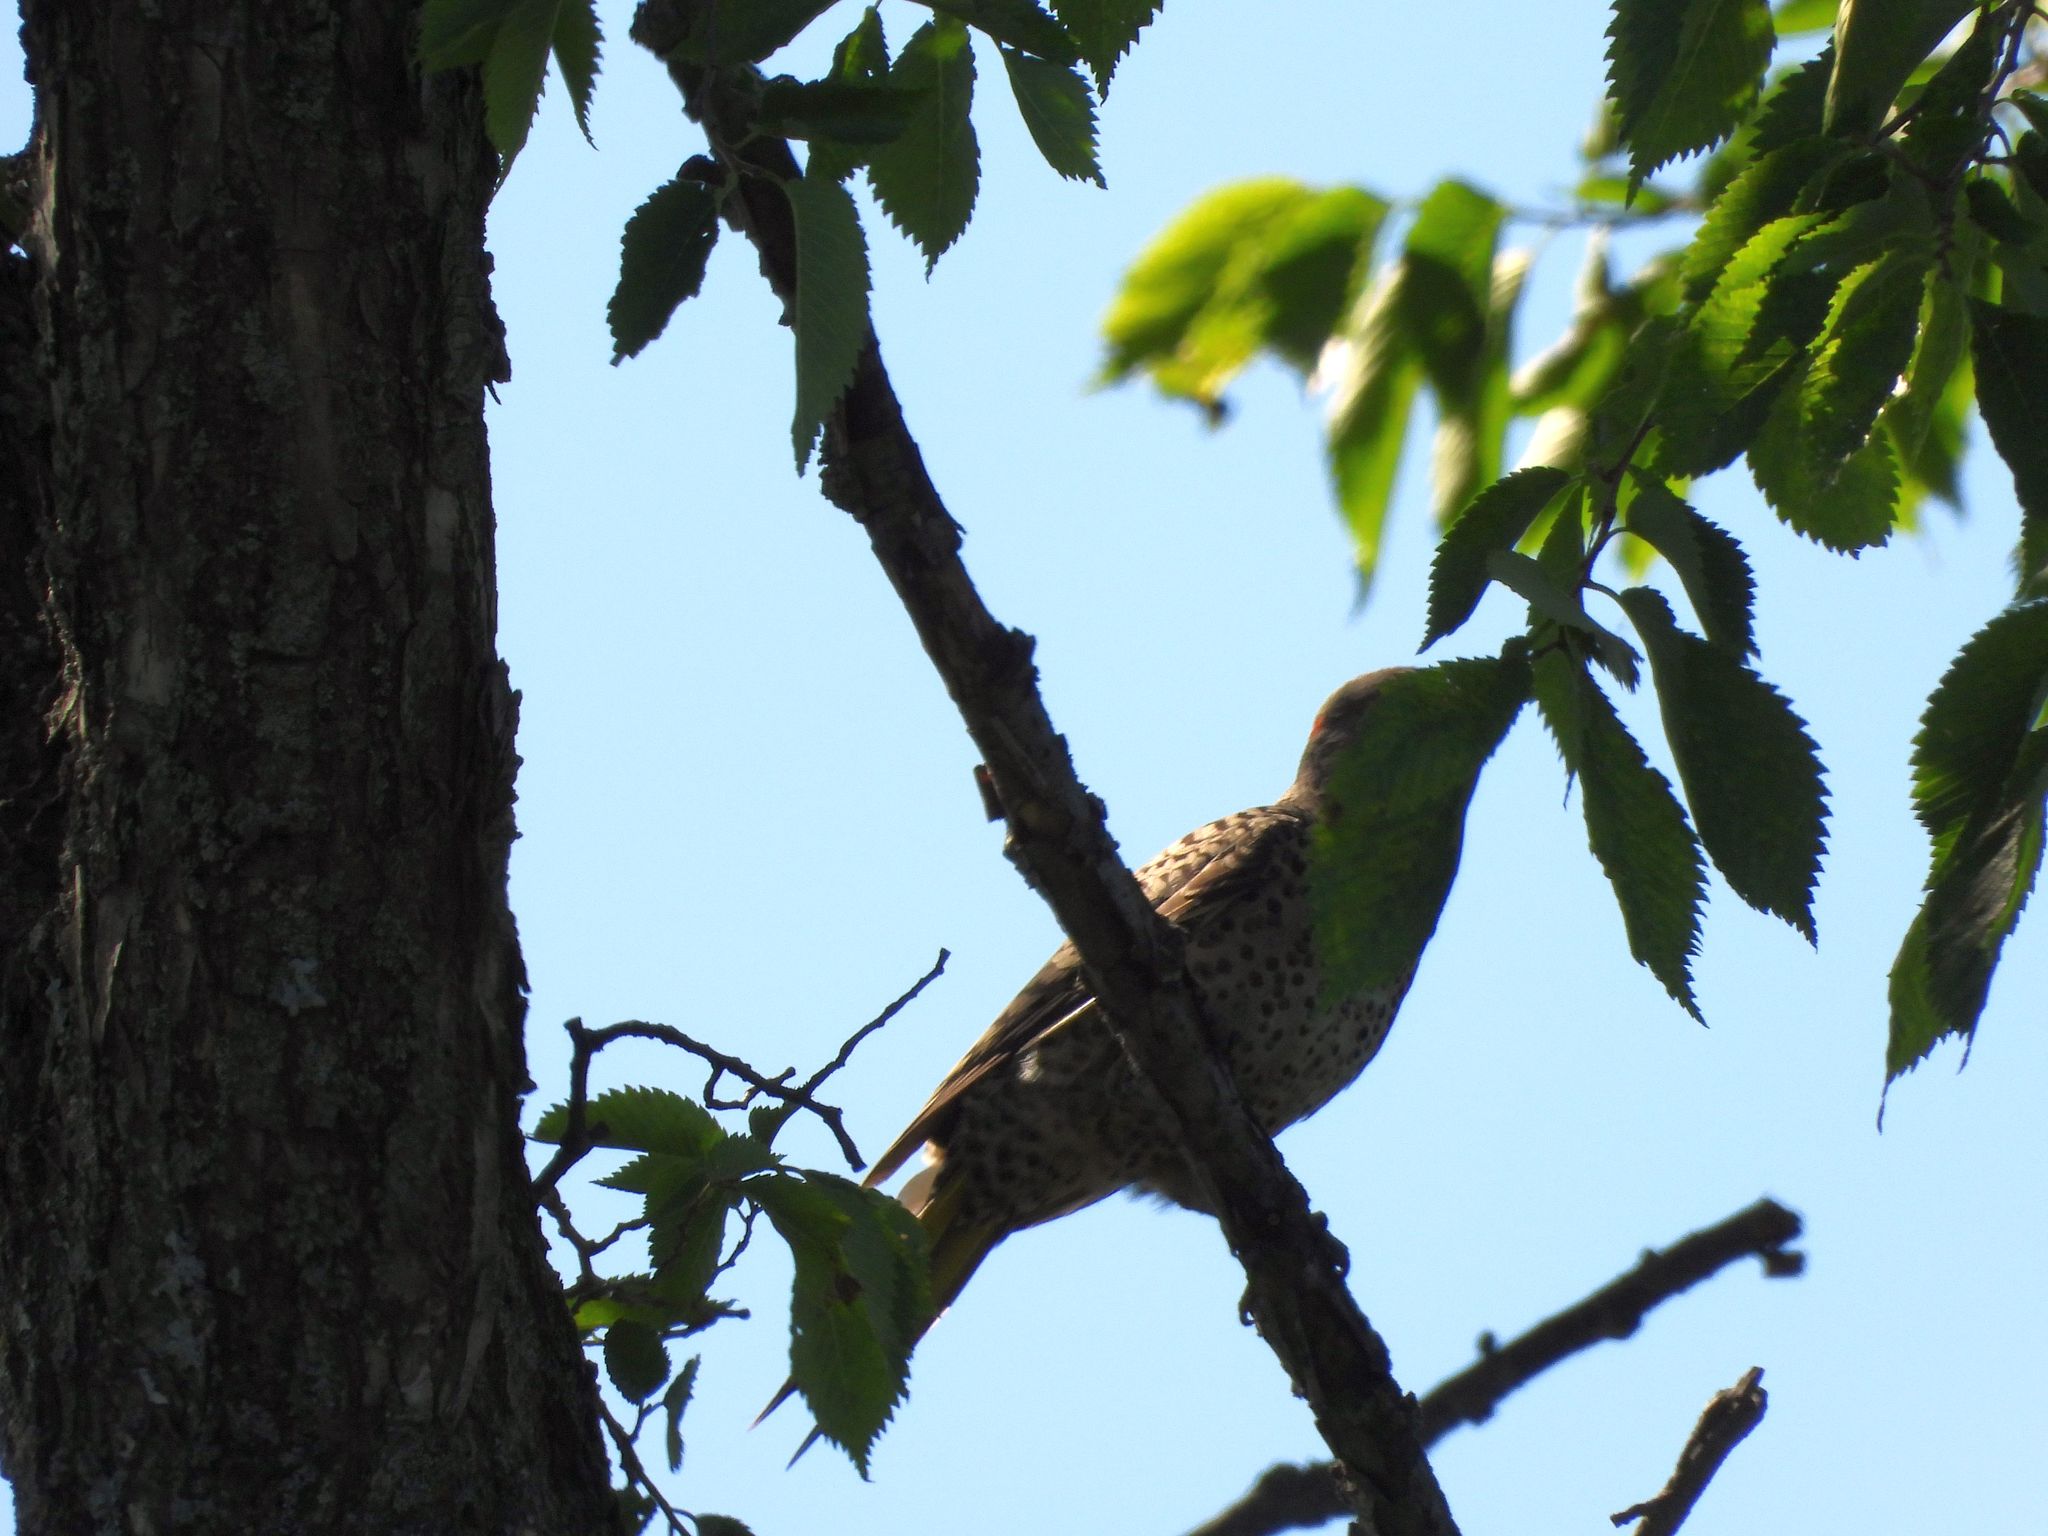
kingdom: Animalia
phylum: Chordata
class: Aves
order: Piciformes
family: Picidae
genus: Colaptes
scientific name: Colaptes auratus
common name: Northern flicker
